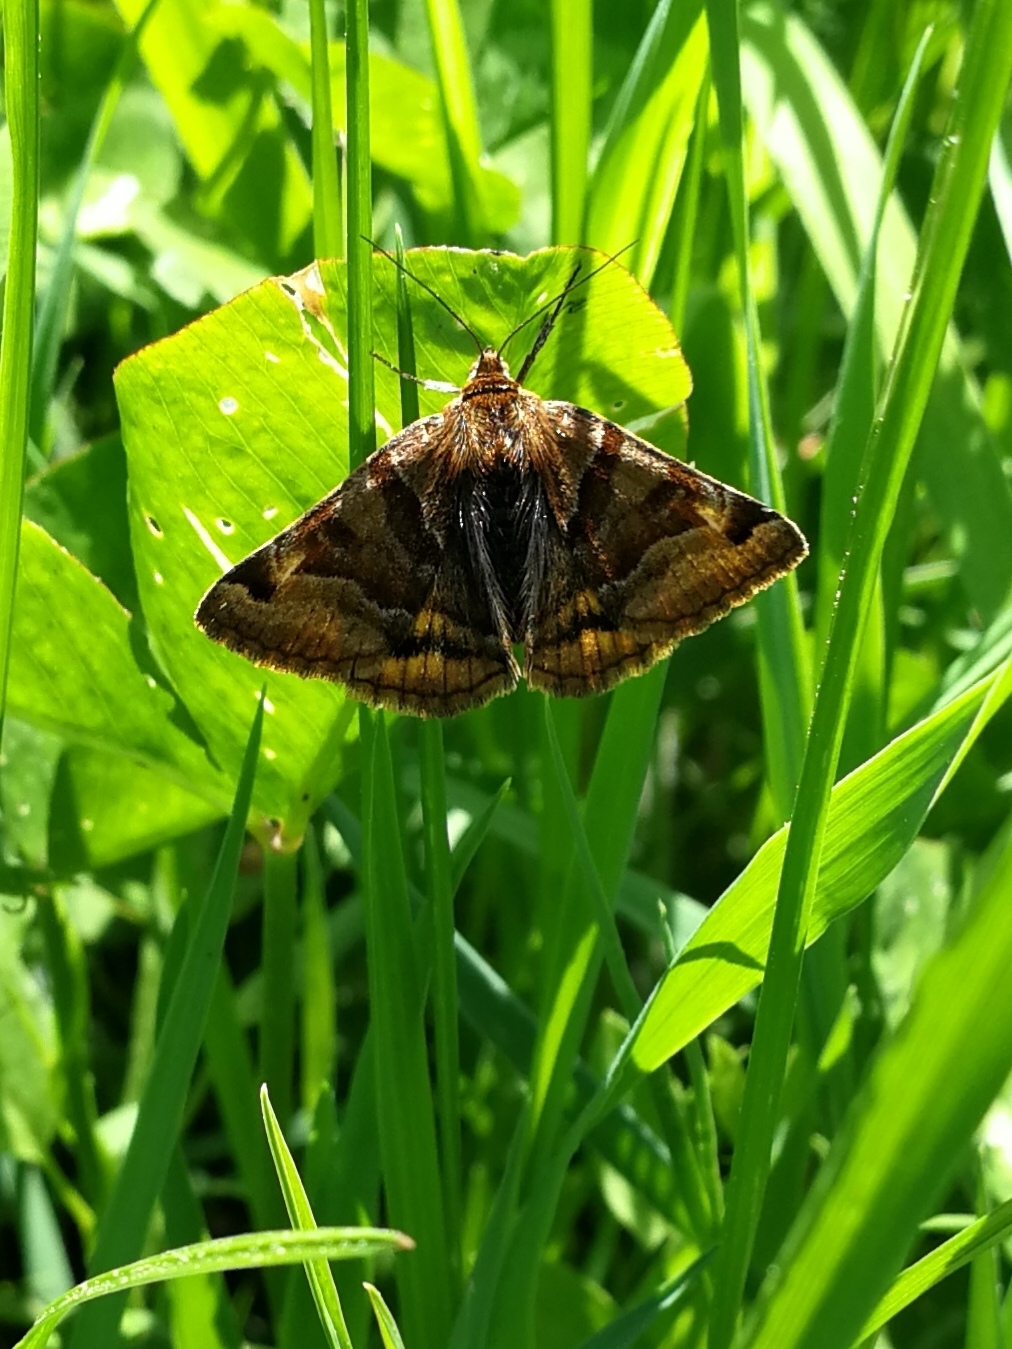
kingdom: Animalia
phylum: Arthropoda
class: Insecta
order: Lepidoptera
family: Erebidae
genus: Euclidia
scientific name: Euclidia glyphica
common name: Burnet companion
